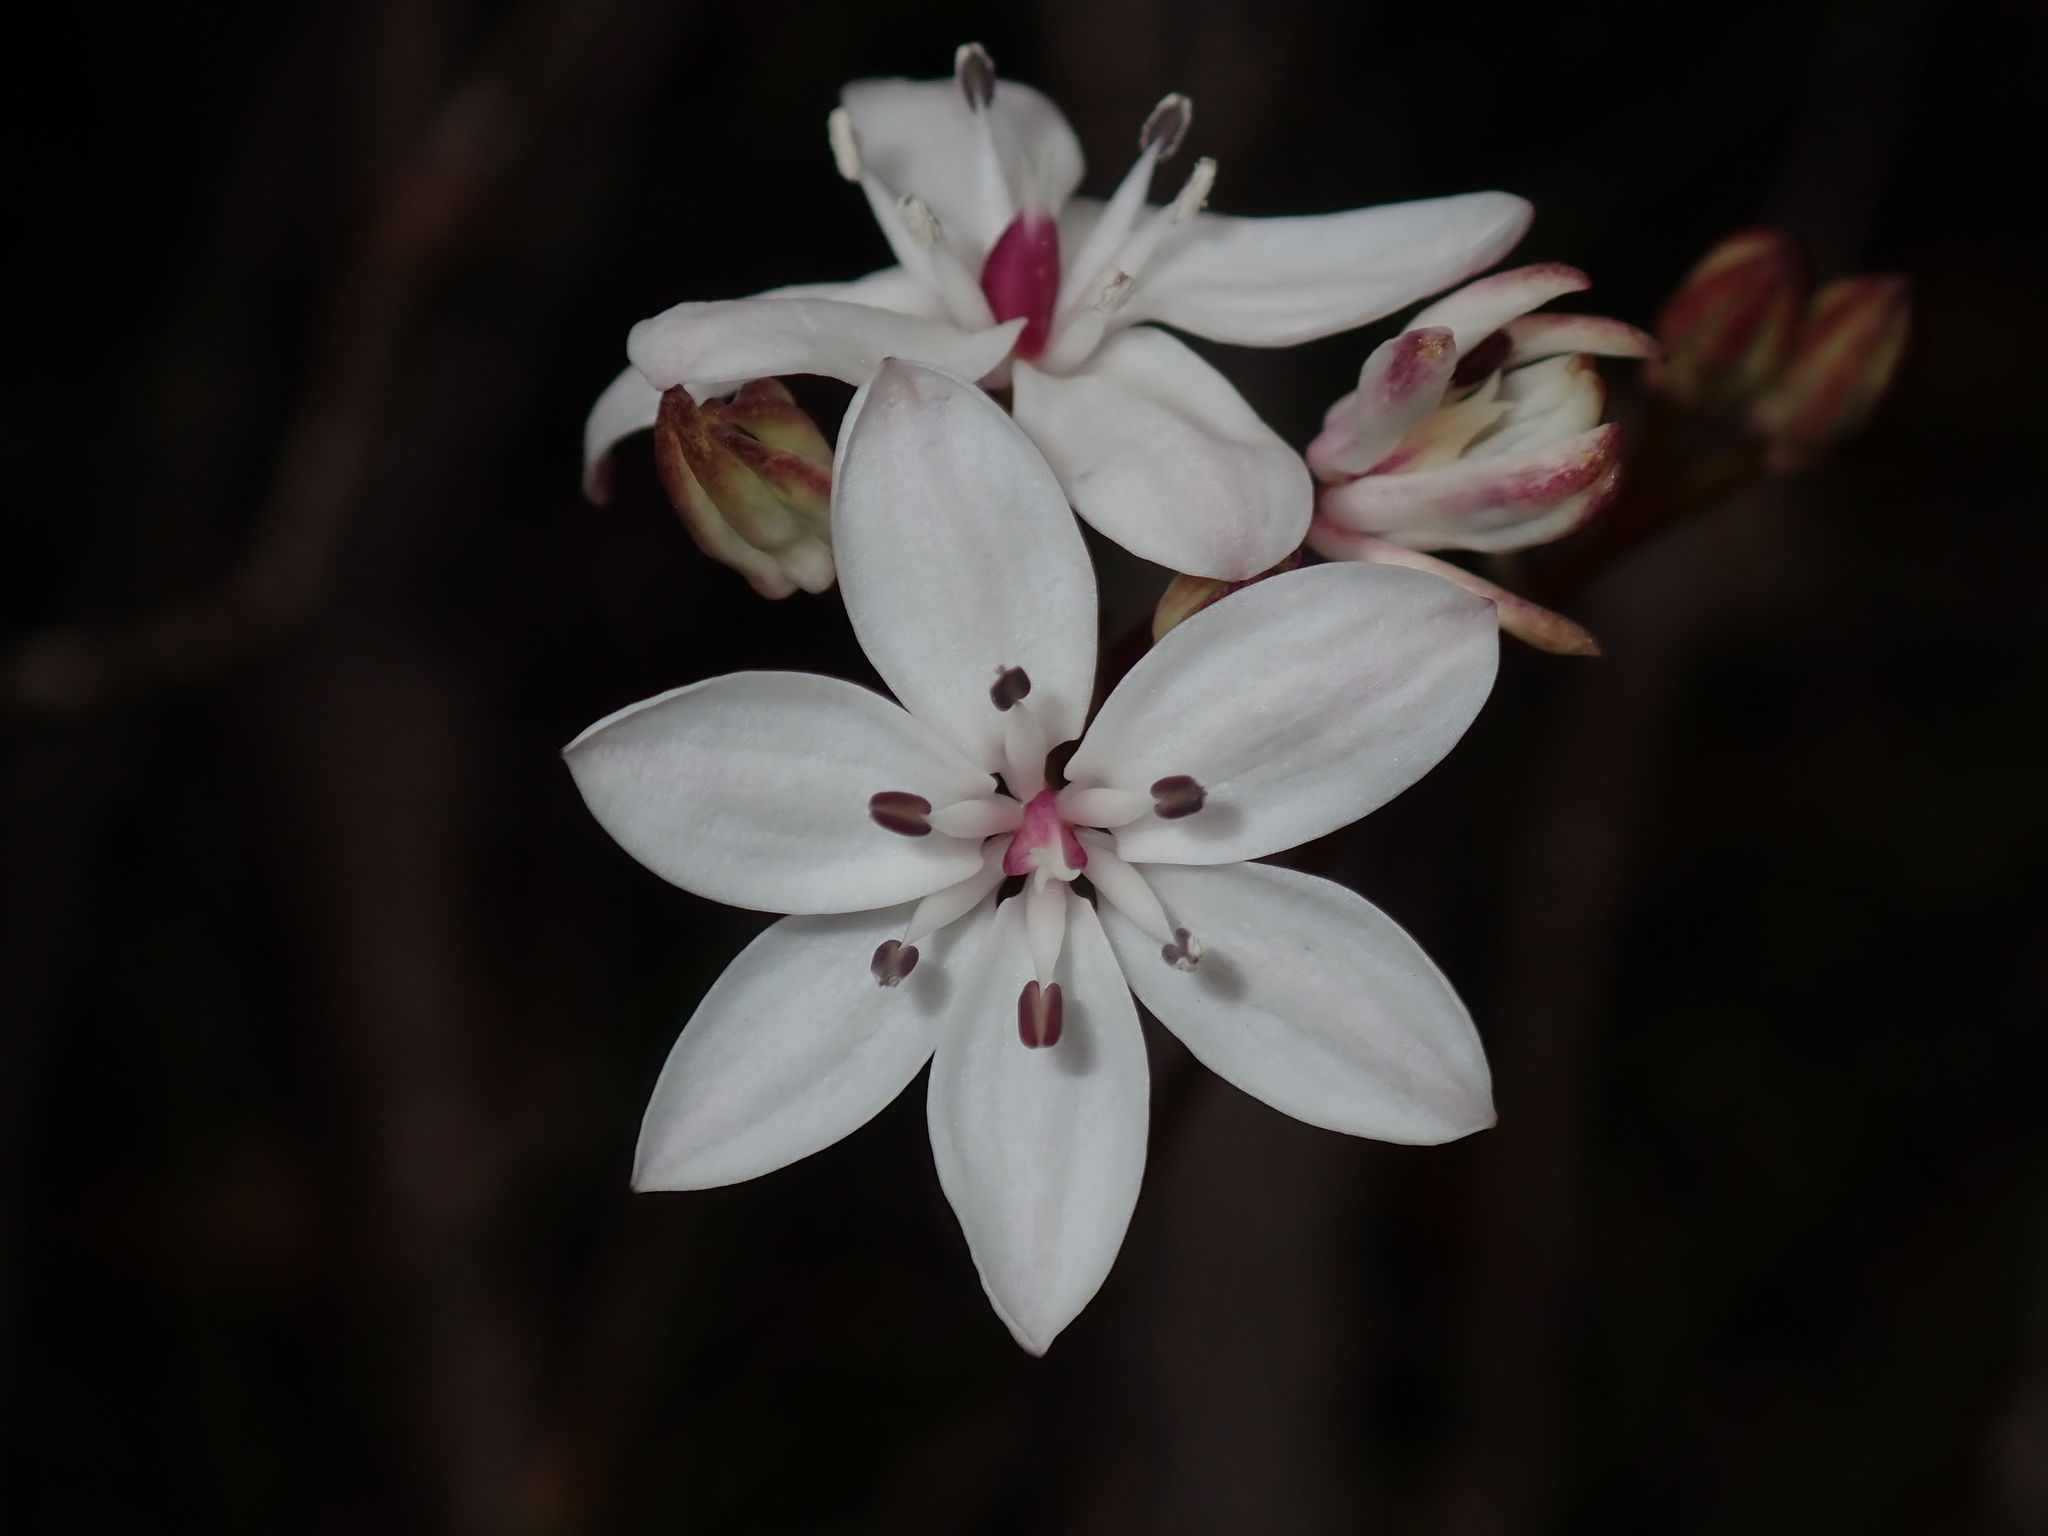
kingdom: Plantae
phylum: Tracheophyta
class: Liliopsida
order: Liliales
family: Colchicaceae
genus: Burchardia
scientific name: Burchardia umbellata
